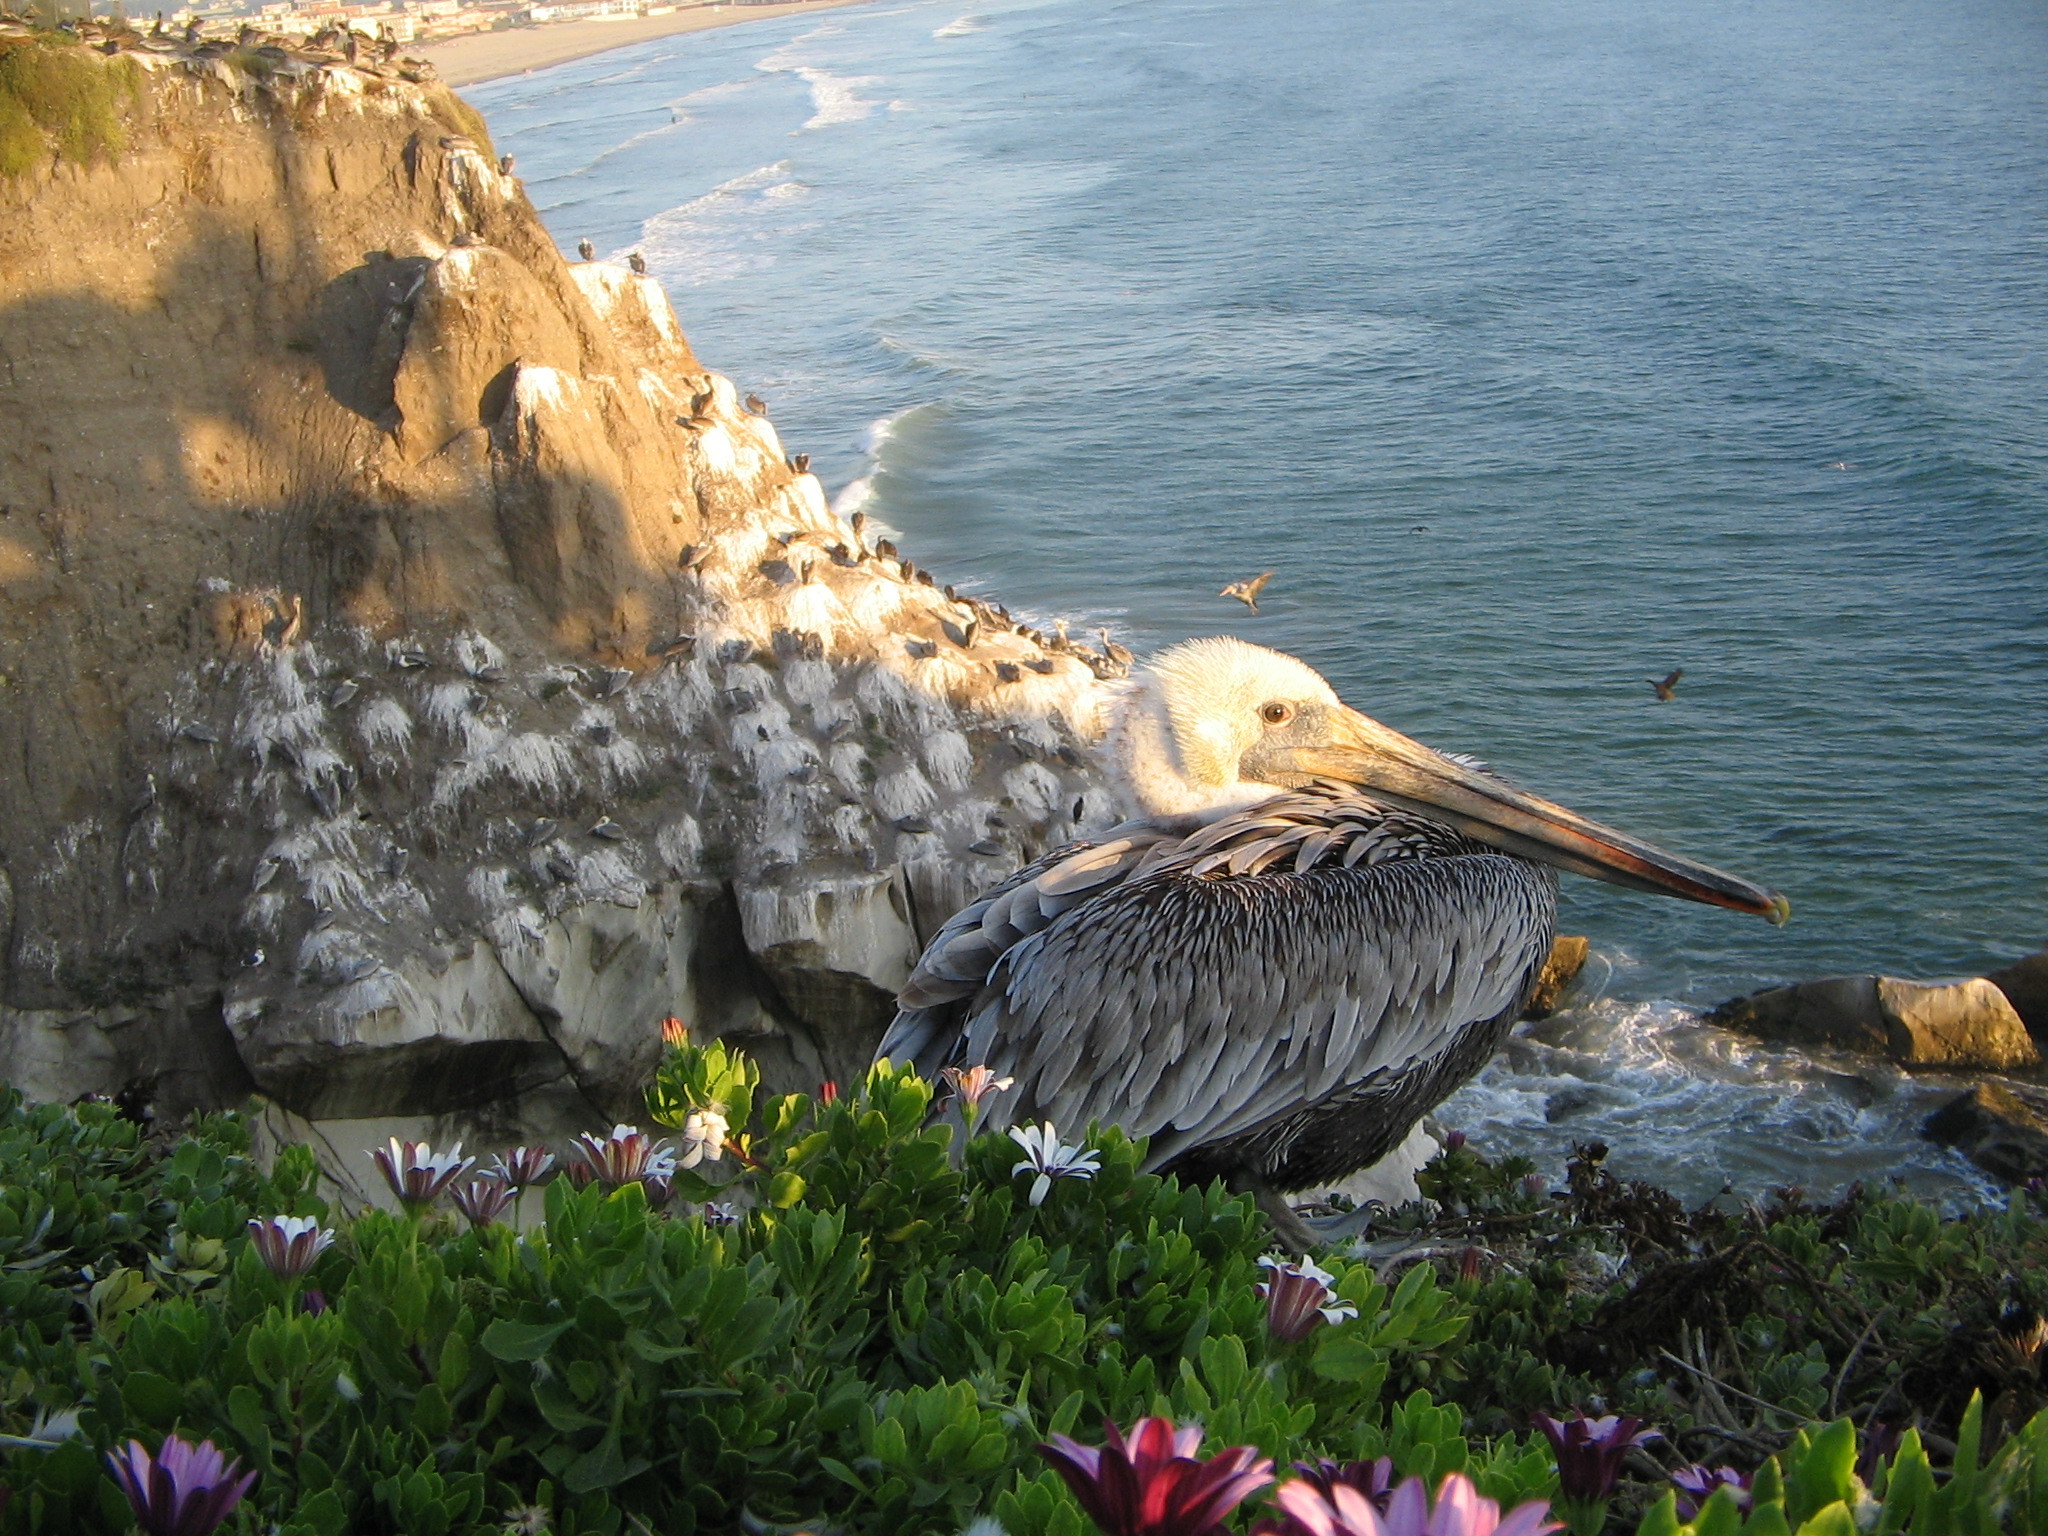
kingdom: Animalia
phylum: Chordata
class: Aves
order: Pelecaniformes
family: Pelecanidae
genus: Pelecanus
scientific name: Pelecanus occidentalis
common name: Brown pelican
